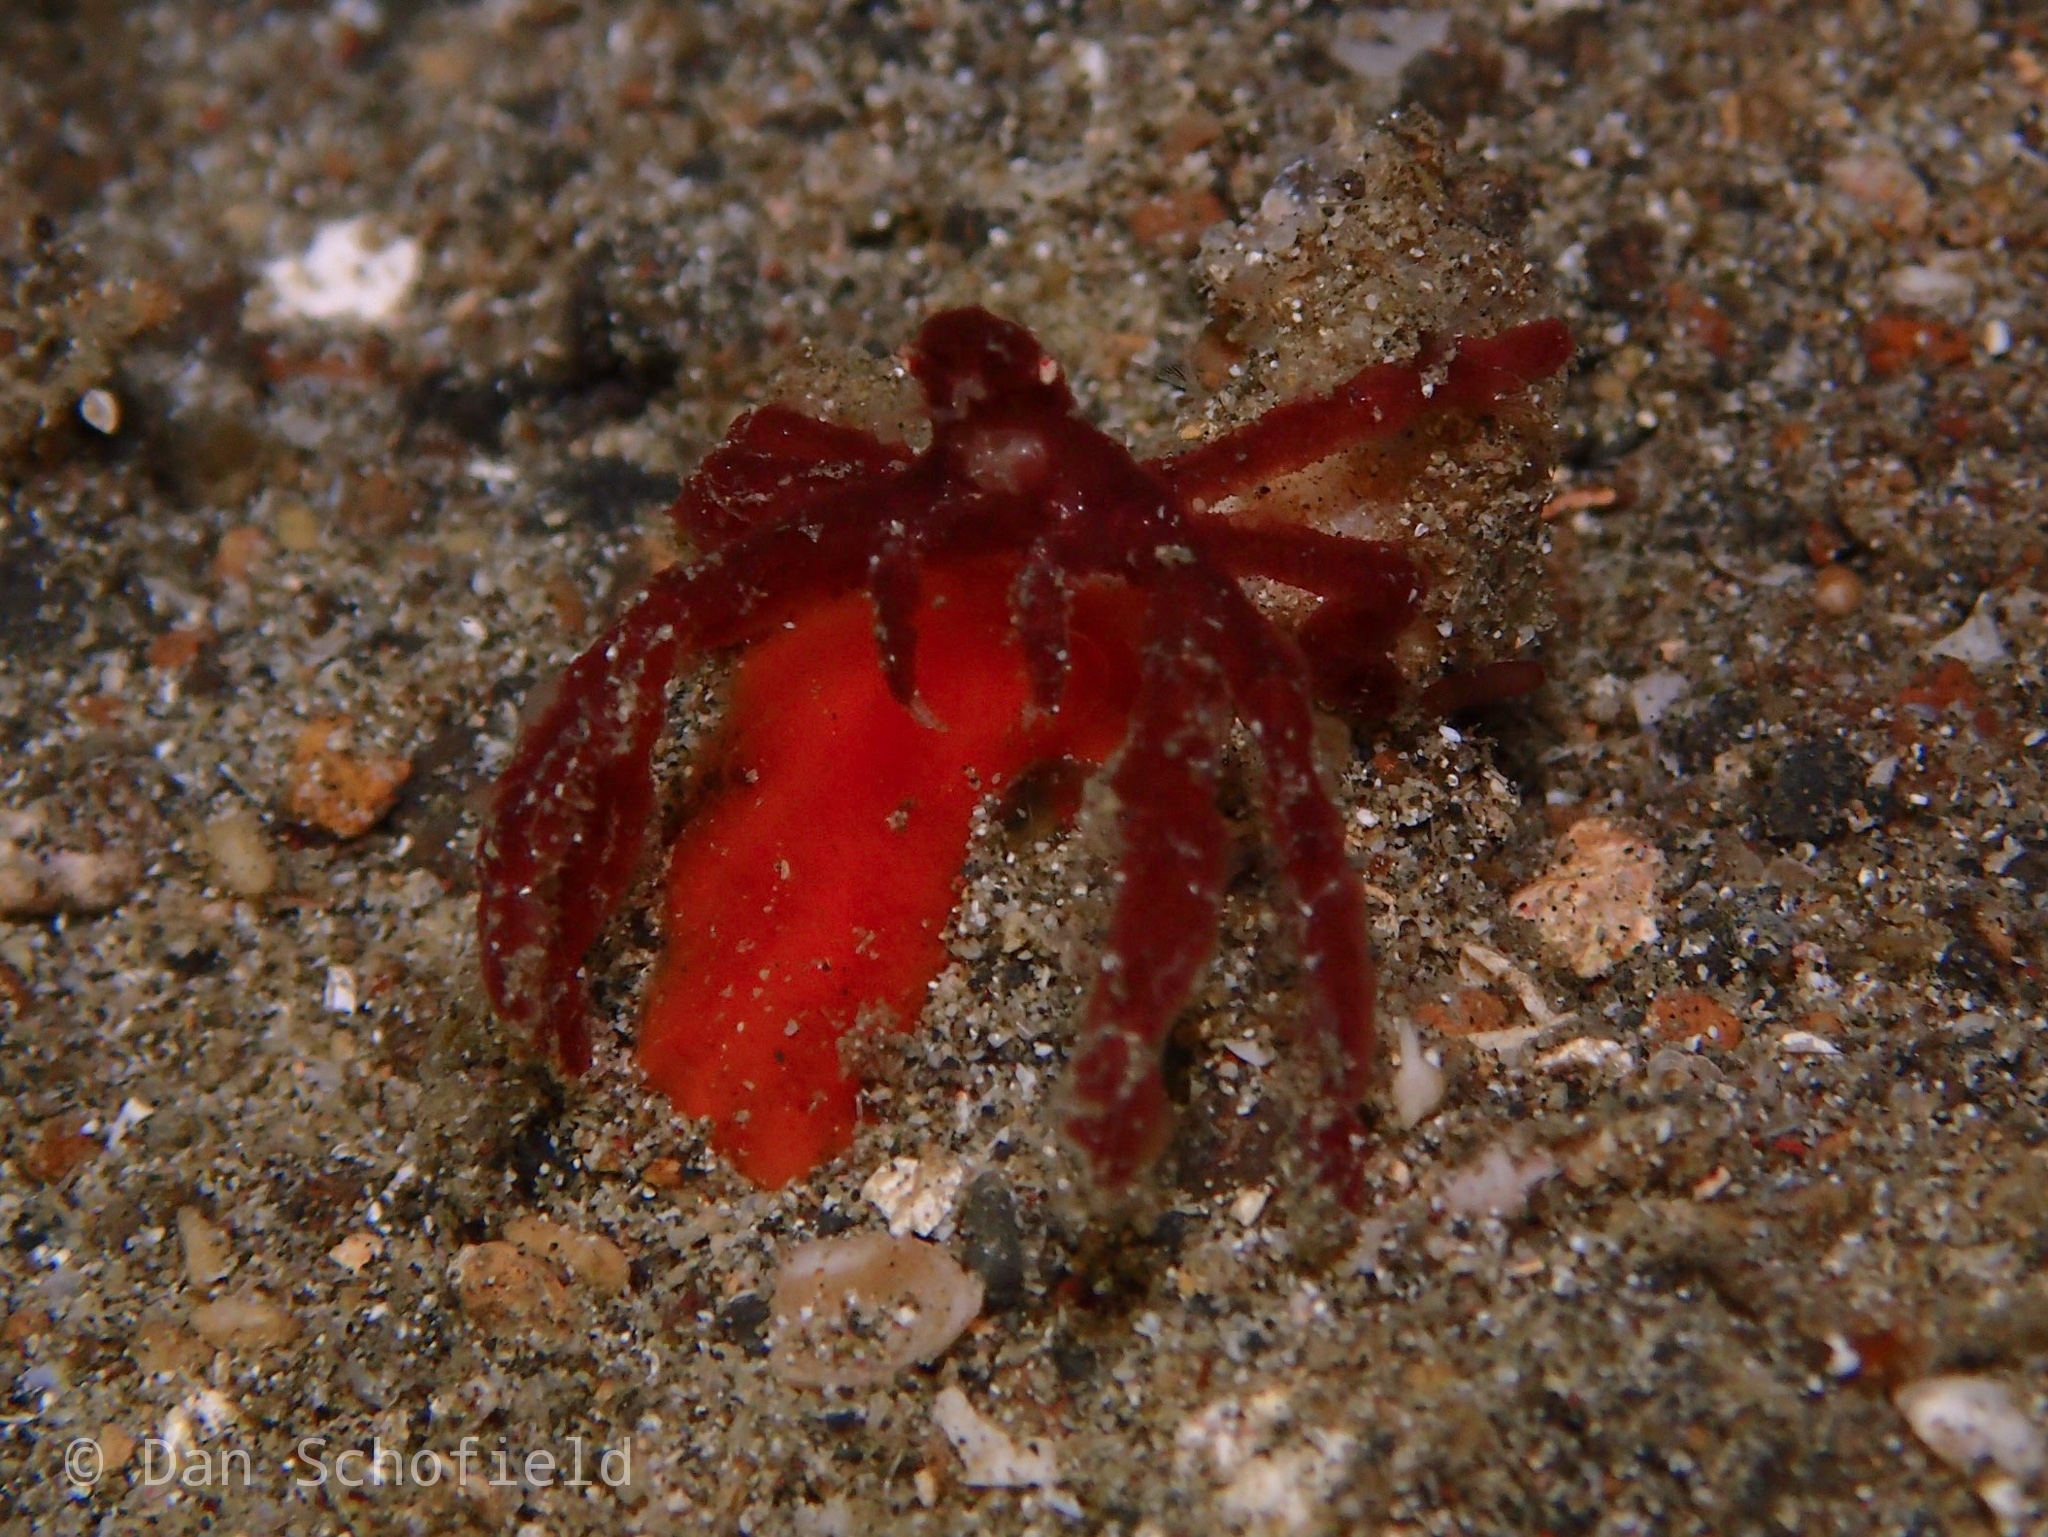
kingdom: Animalia
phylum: Arthropoda
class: Malacostraca
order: Decapoda
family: Inachidae
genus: Achaeus
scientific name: Achaeus japonicus
